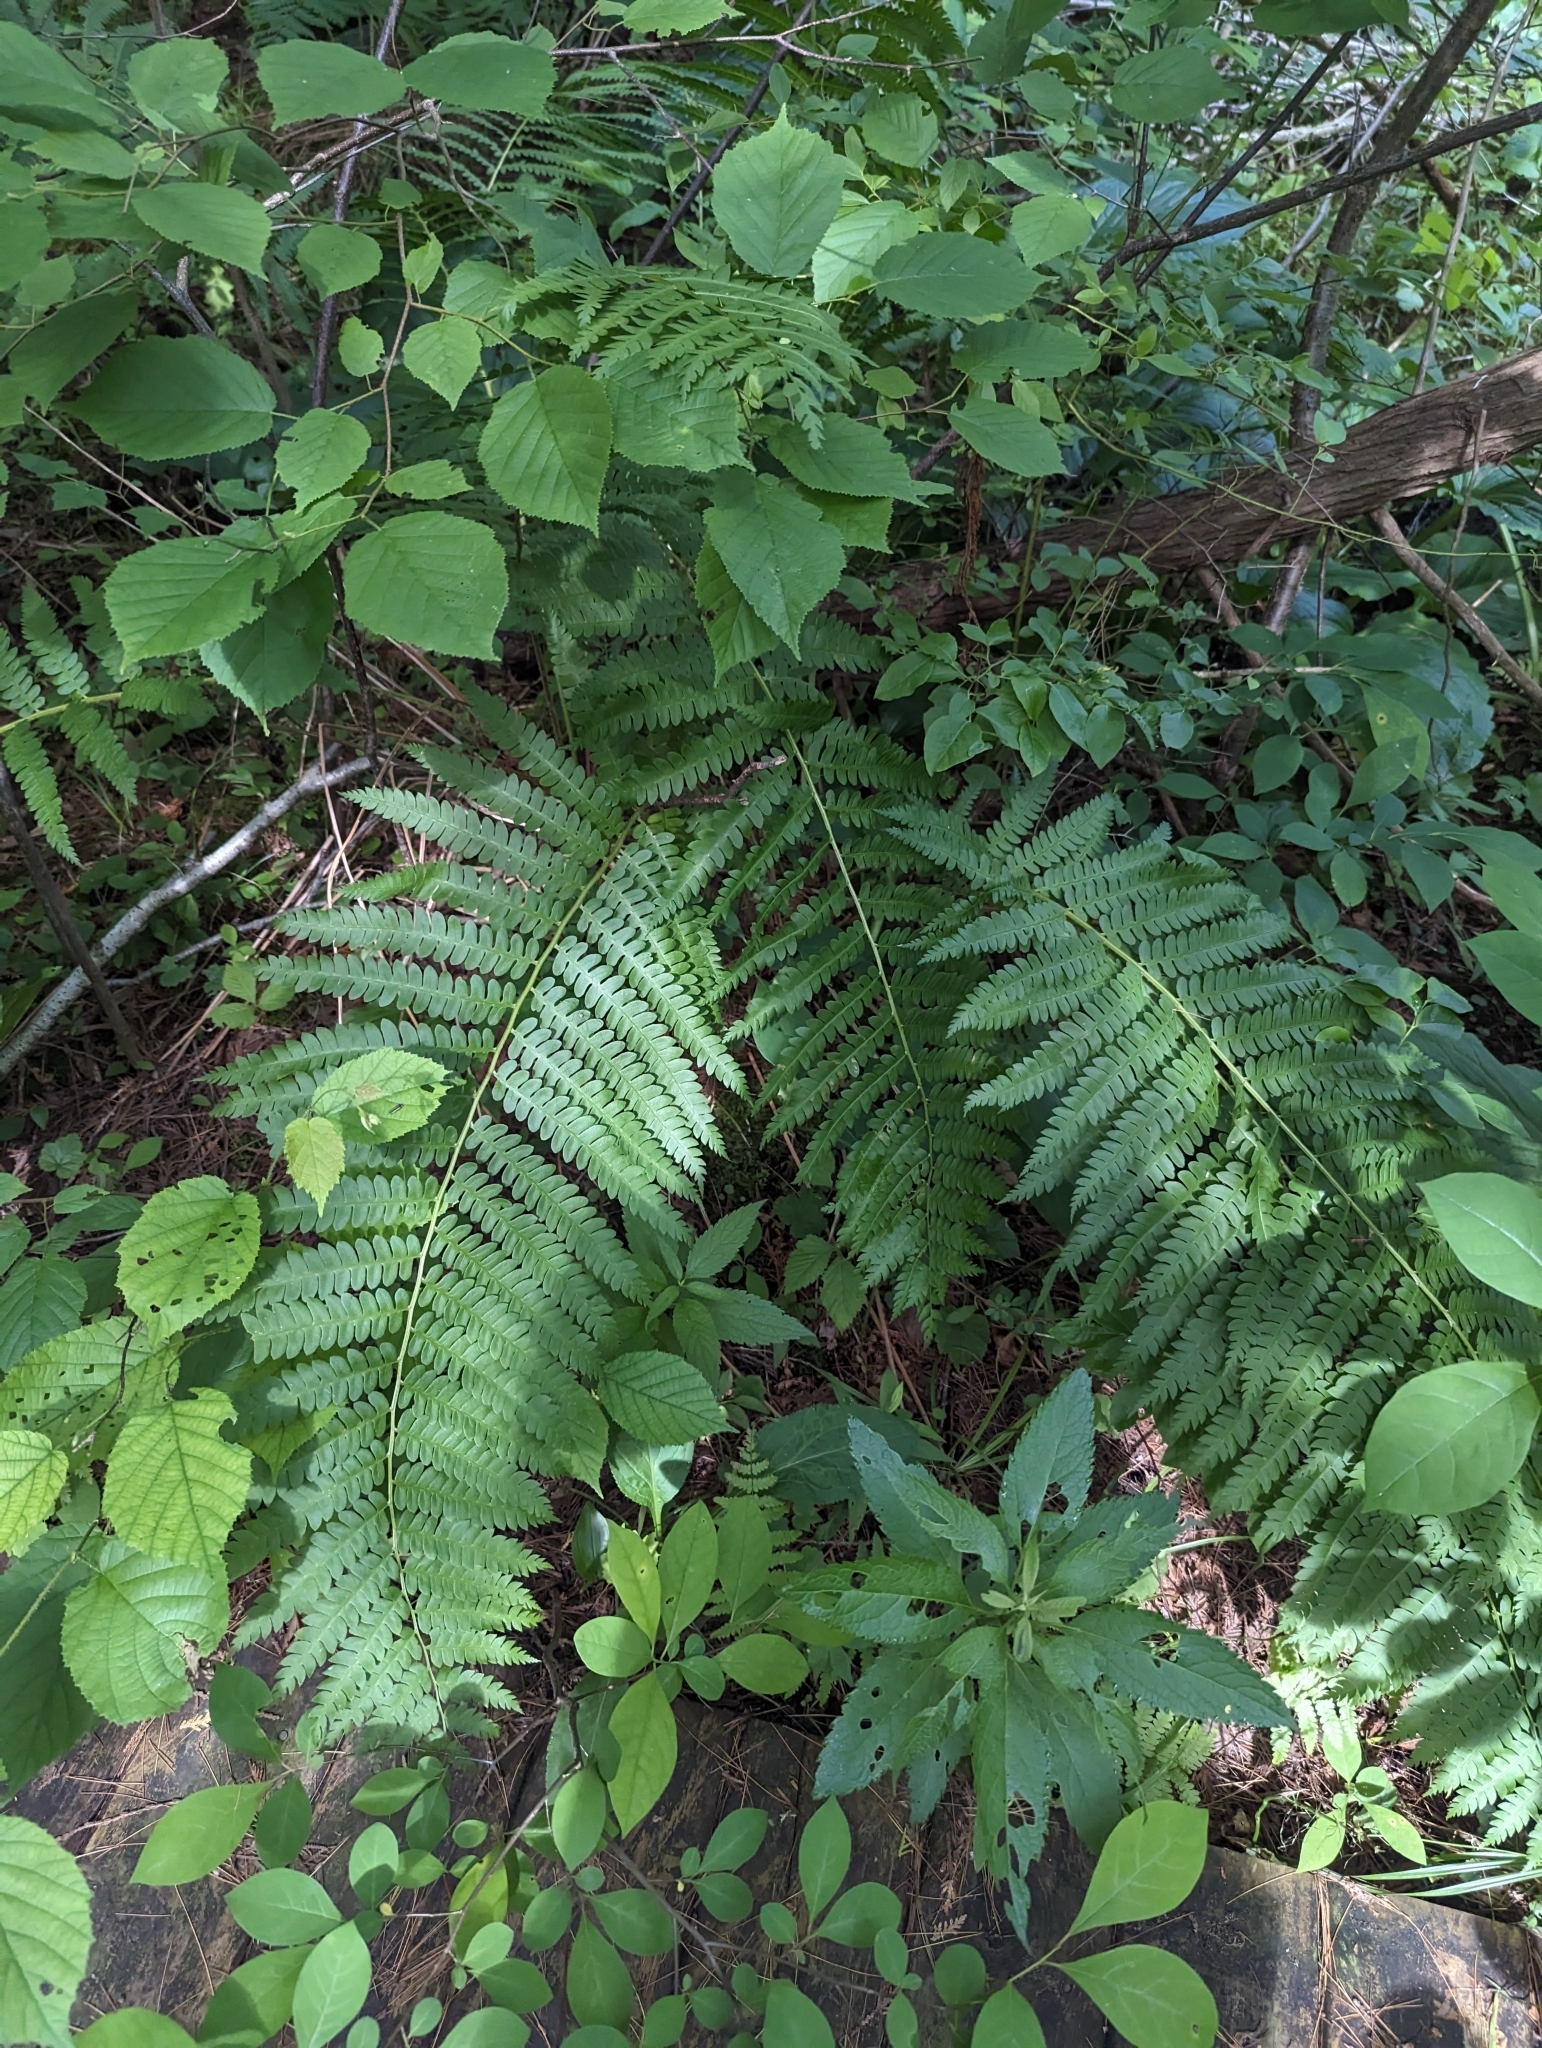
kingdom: Plantae
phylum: Tracheophyta
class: Polypodiopsida
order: Osmundales
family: Osmundaceae
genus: Osmundastrum
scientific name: Osmundastrum cinnamomeum
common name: Cinnamon fern
